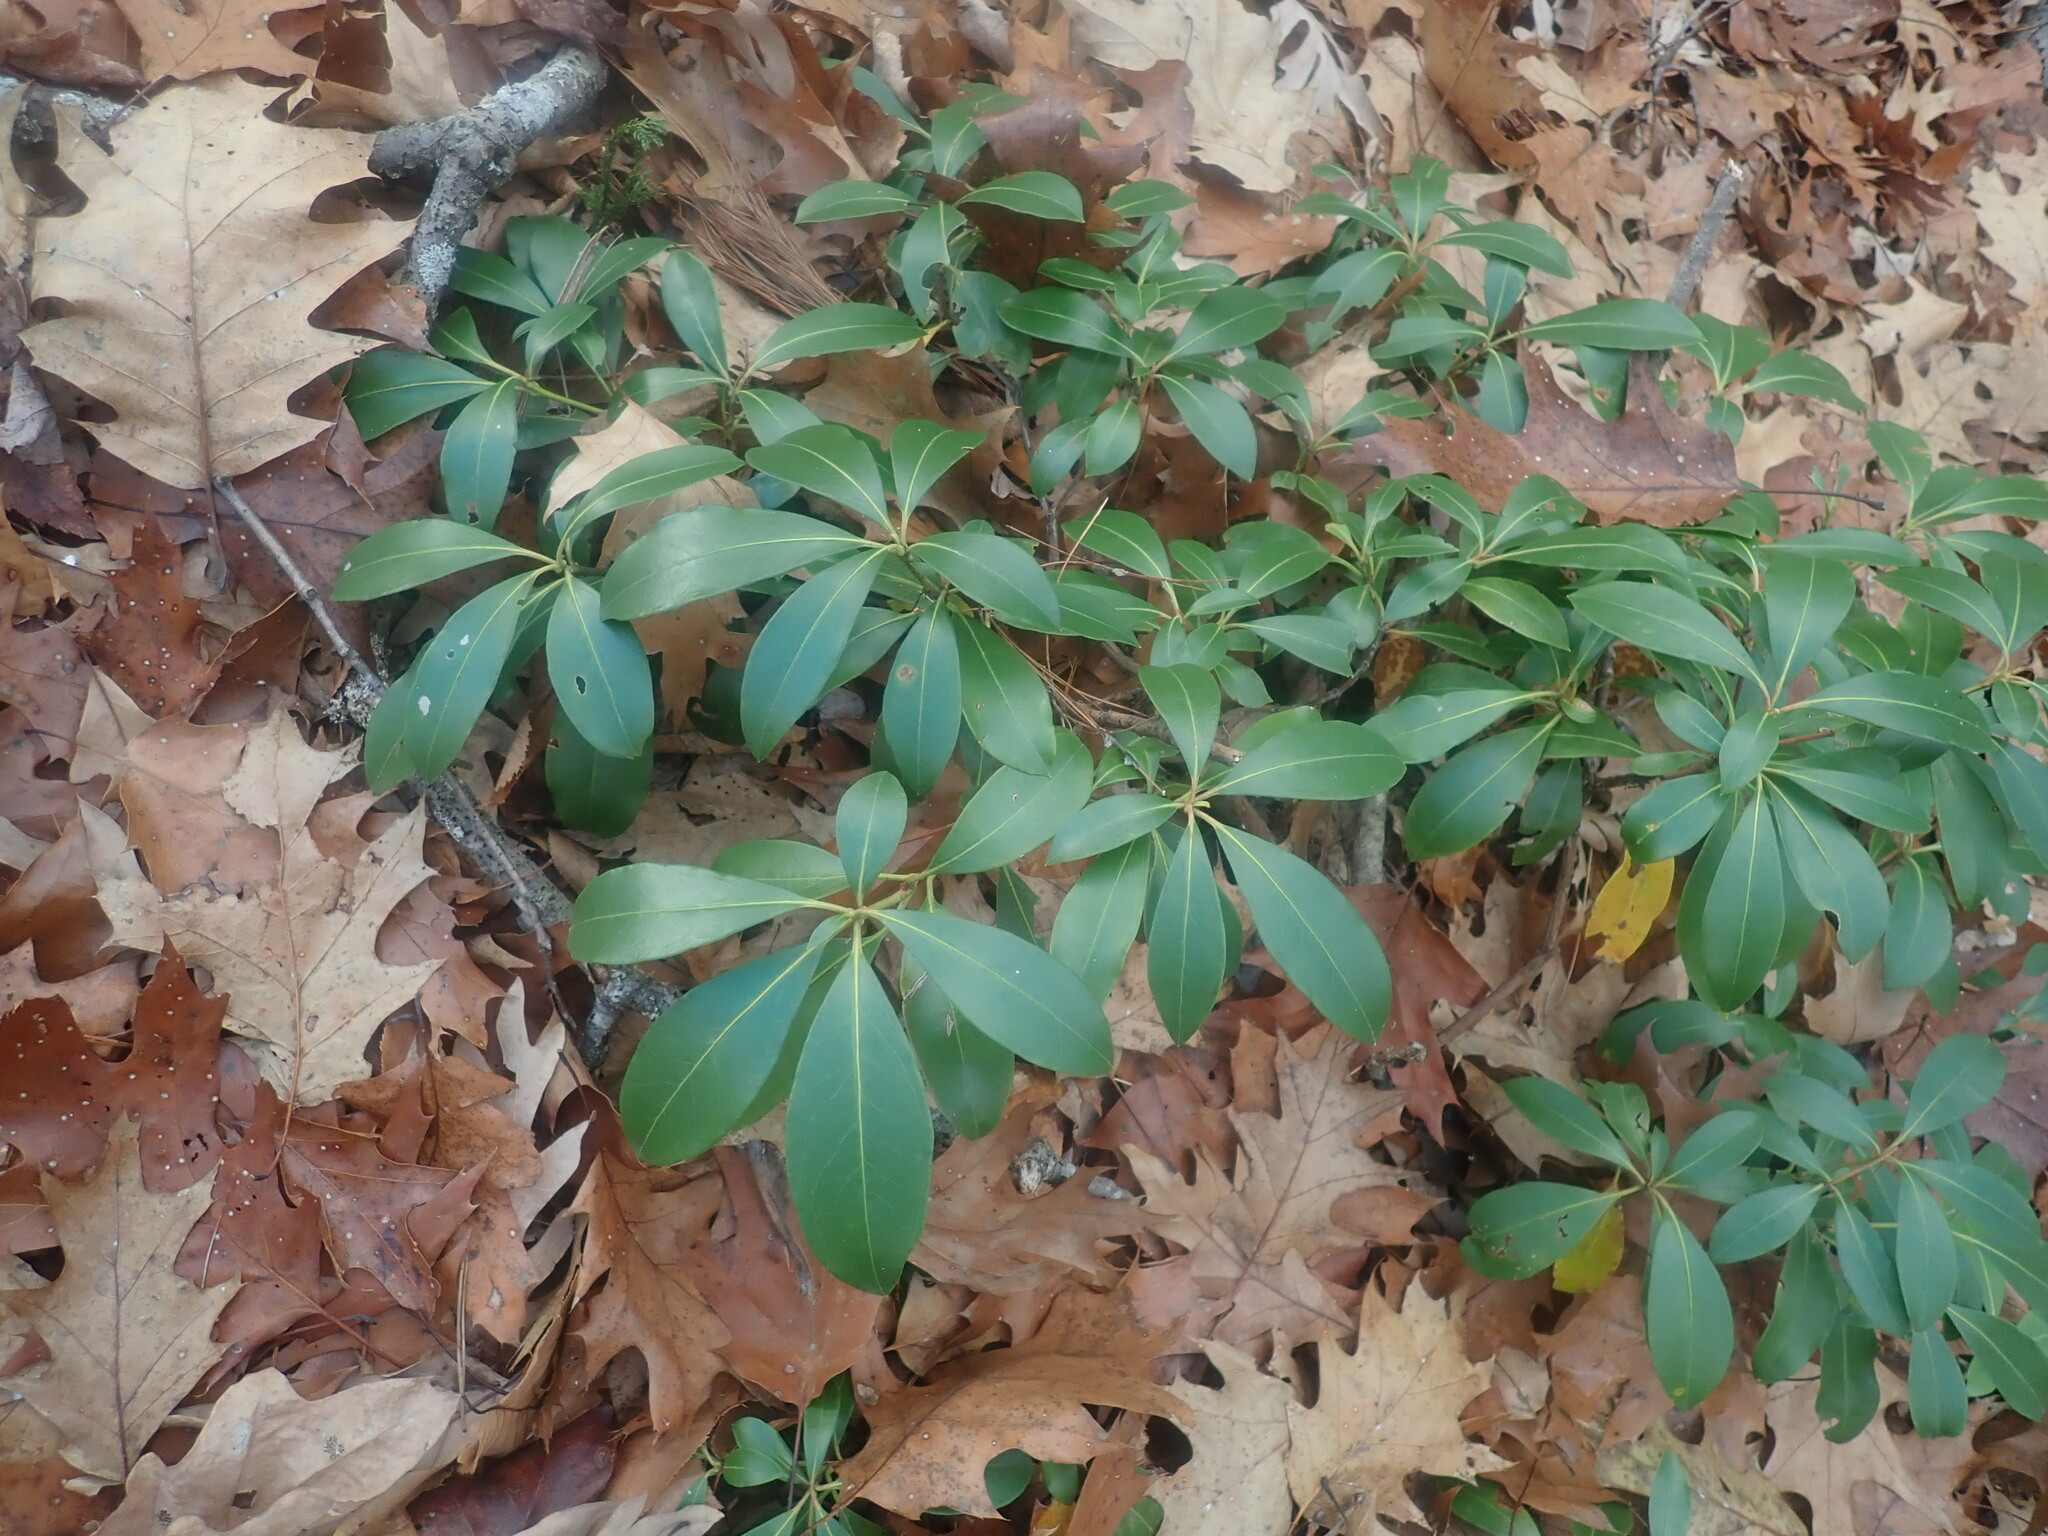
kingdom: Plantae
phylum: Tracheophyta
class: Magnoliopsida
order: Ericales
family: Ericaceae
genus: Kalmia
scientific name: Kalmia latifolia
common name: Mountain-laurel
